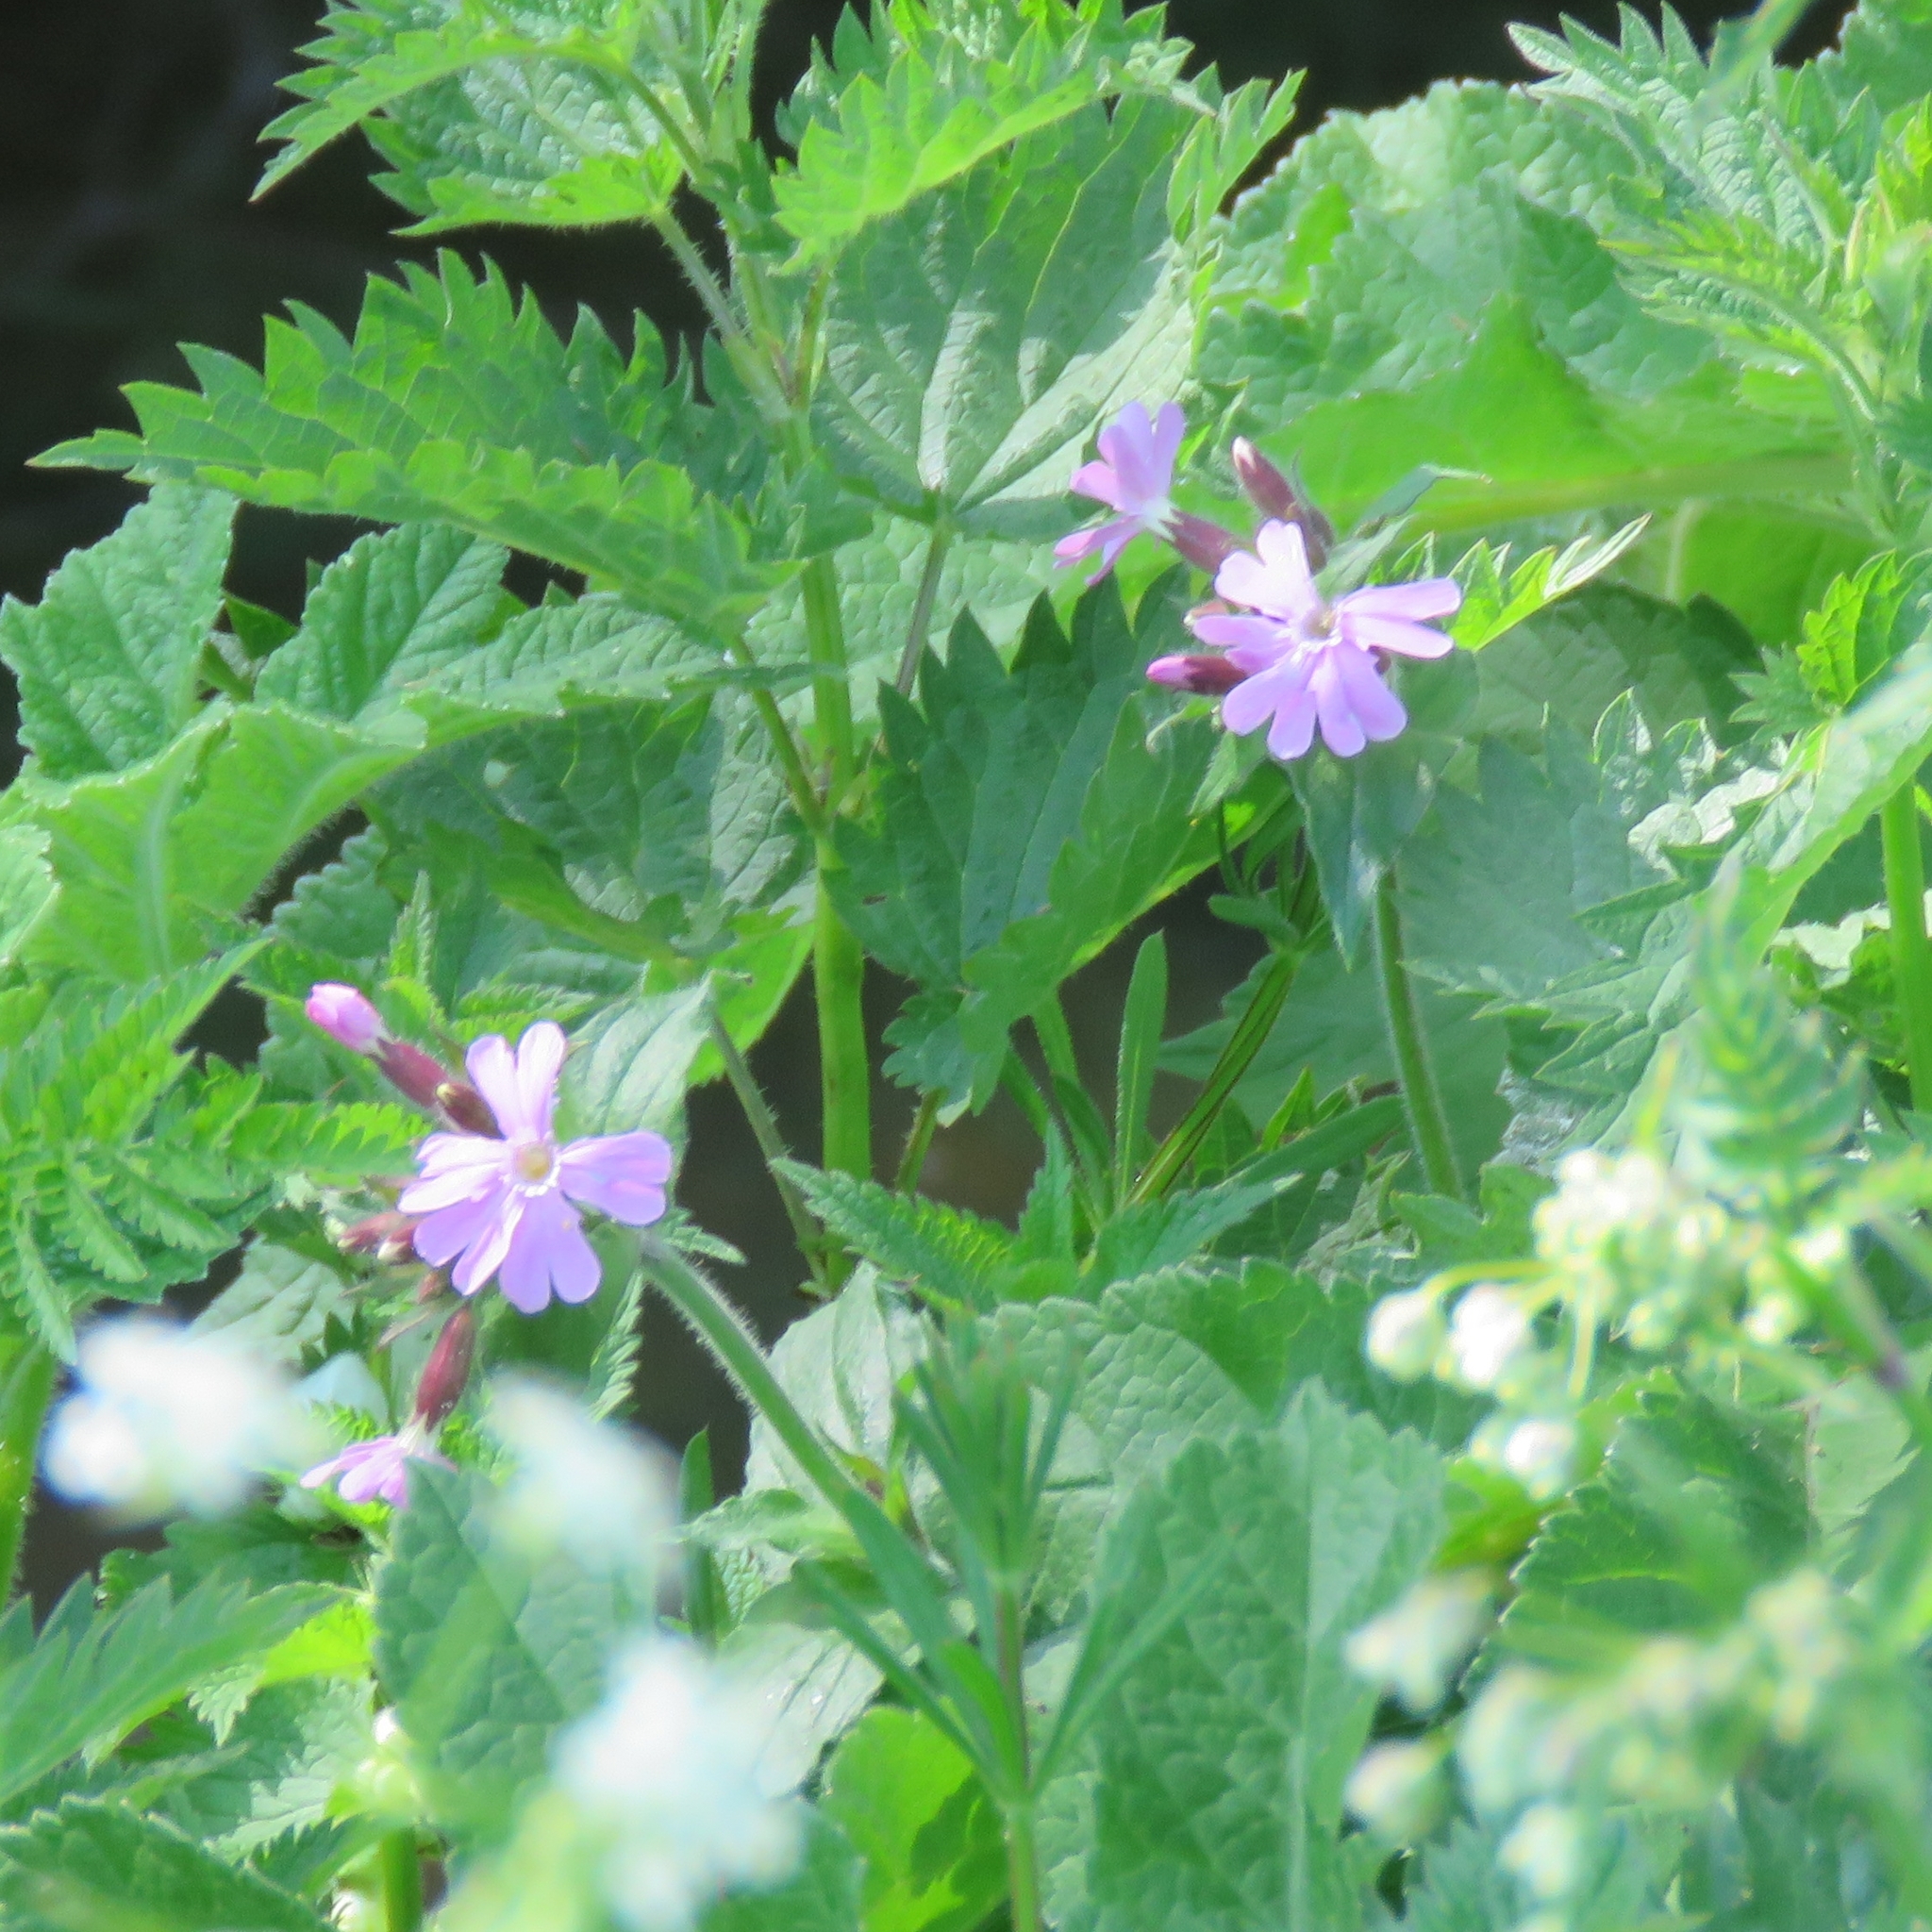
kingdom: Plantae
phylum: Tracheophyta
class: Magnoliopsida
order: Caryophyllales
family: Caryophyllaceae
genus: Silene
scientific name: Silene dioica
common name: Red campion
